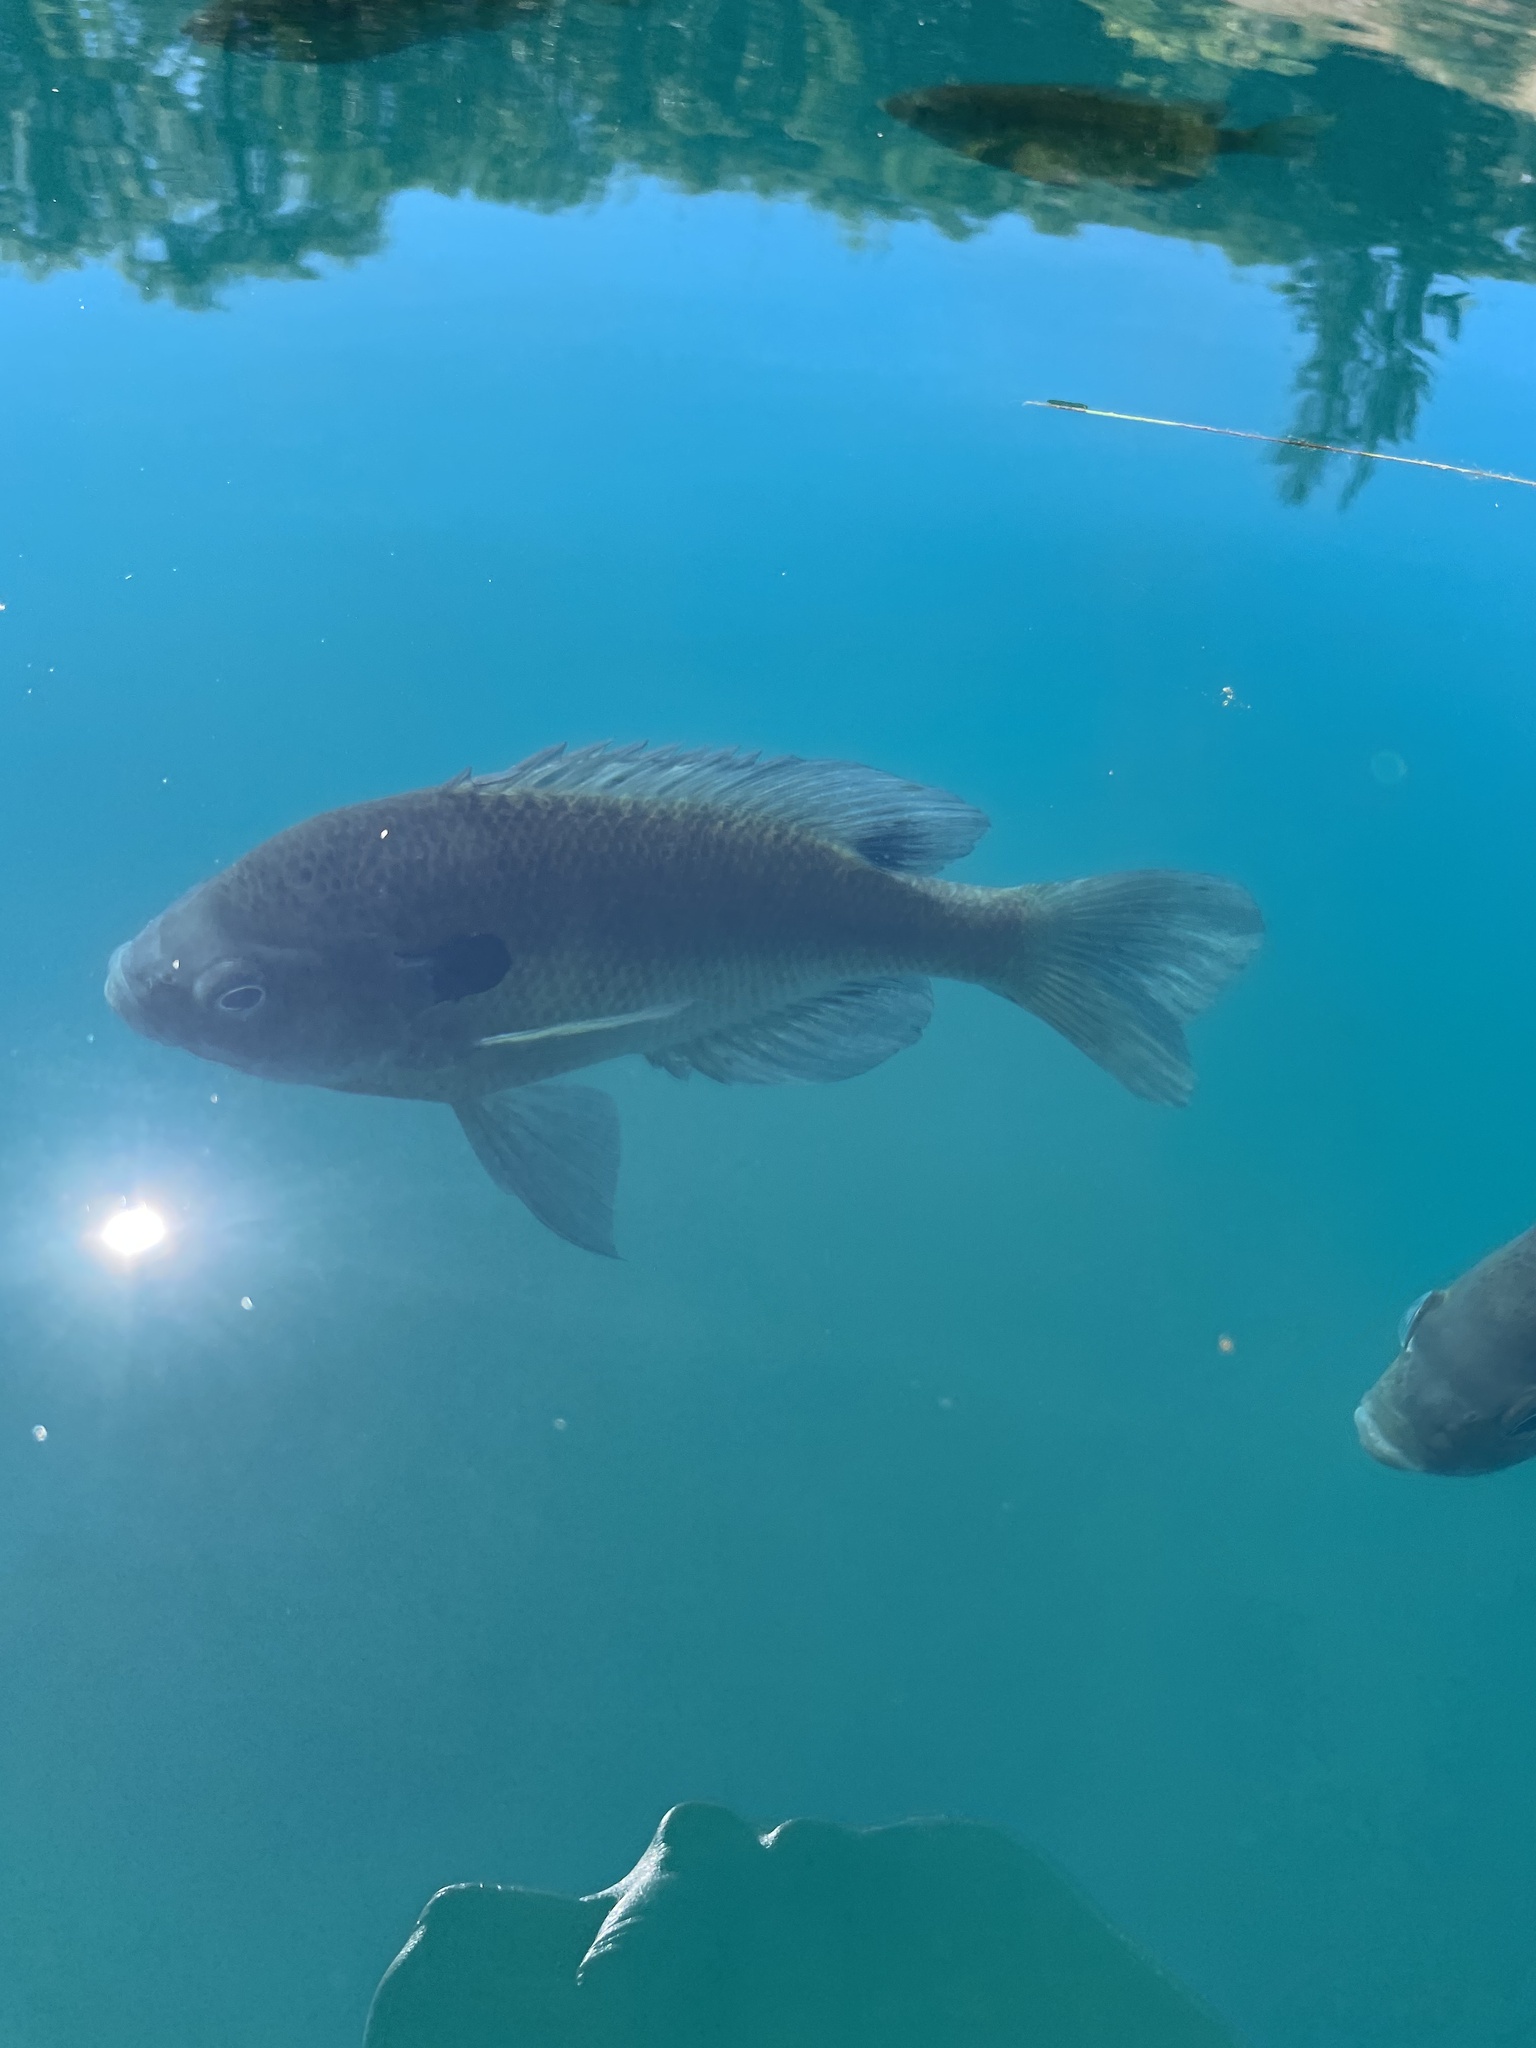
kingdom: Animalia
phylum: Chordata
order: Perciformes
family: Centrarchidae
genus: Lepomis
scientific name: Lepomis macrochirus
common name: Bluegill
